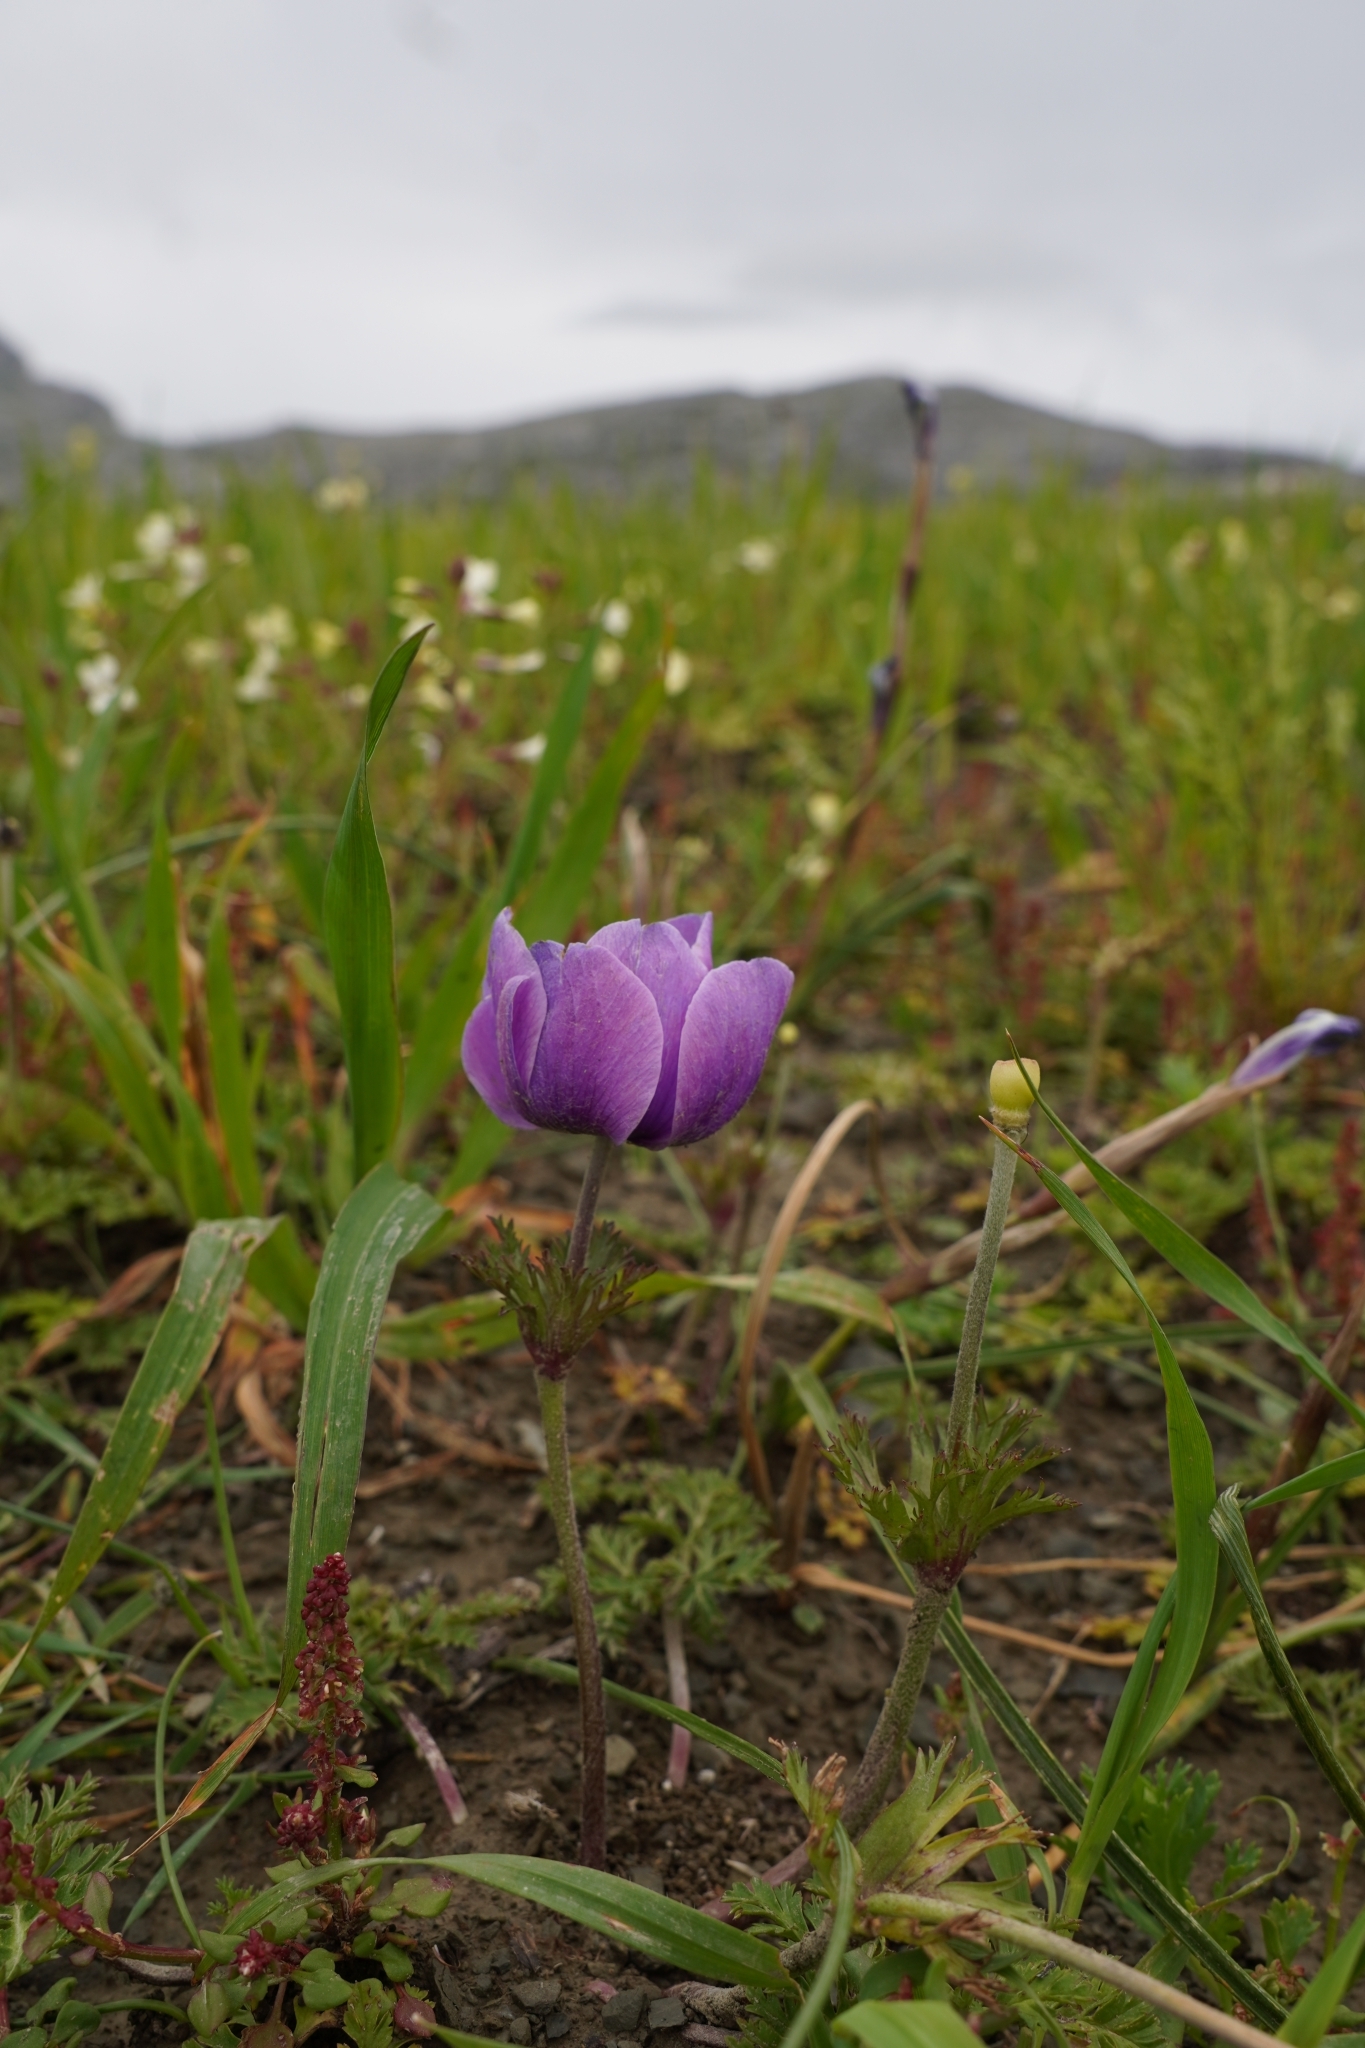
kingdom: Plantae
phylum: Tracheophyta
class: Magnoliopsida
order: Ranunculales
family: Ranunculaceae
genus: Anemone
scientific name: Anemone coronaria
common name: Poppy anemone
